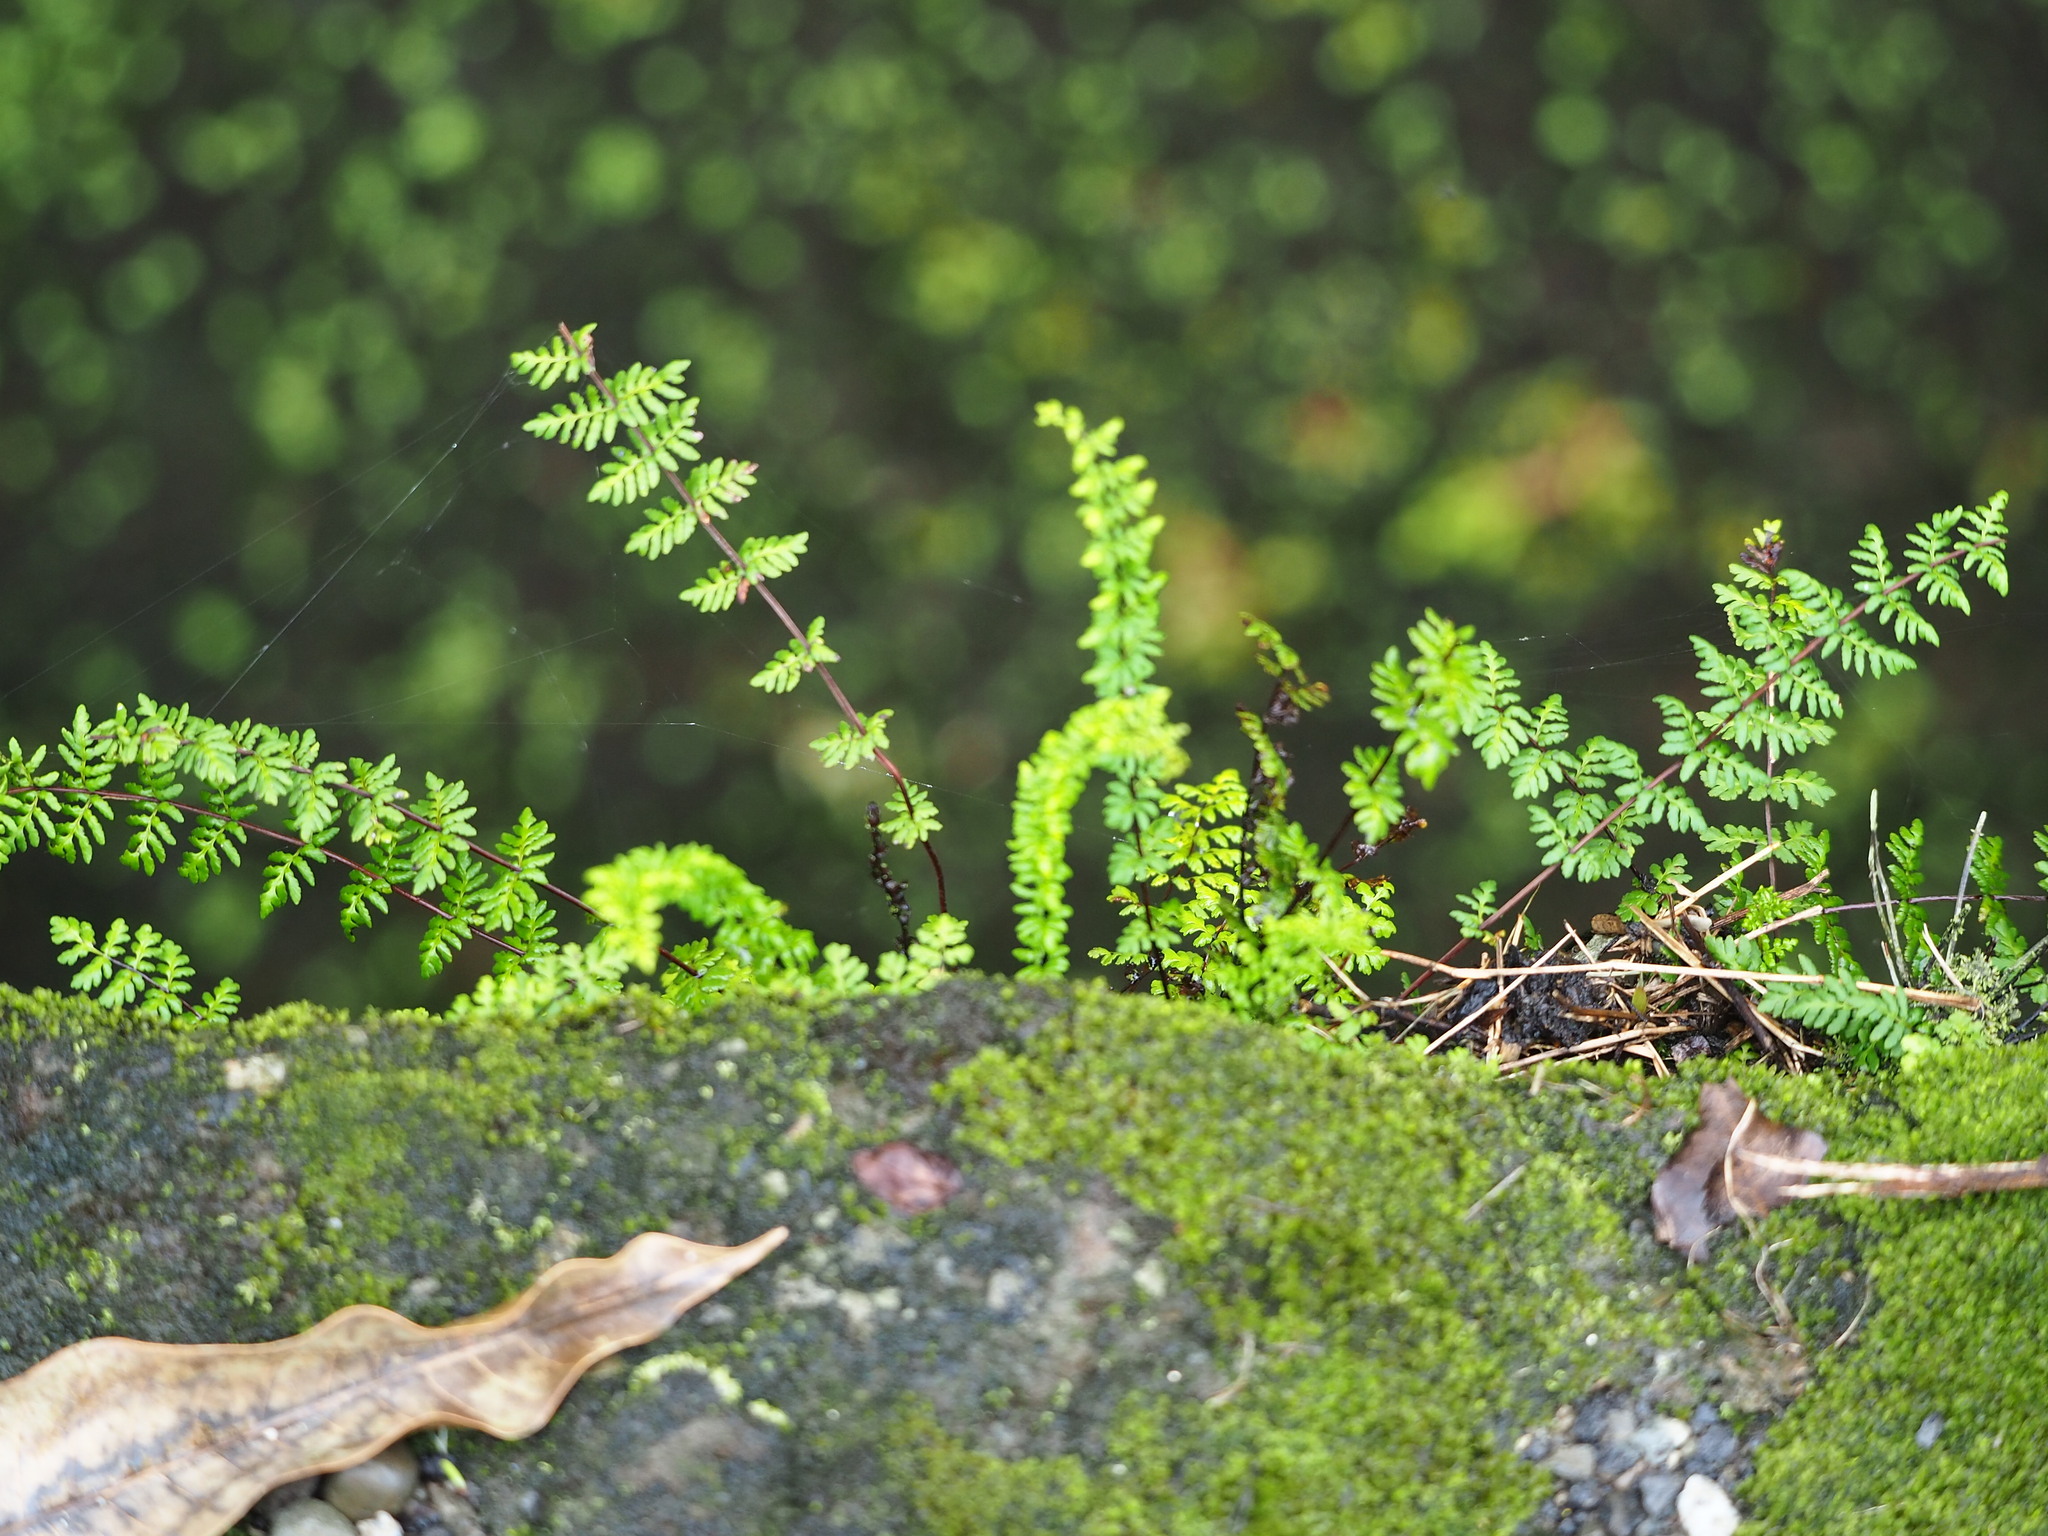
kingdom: Plantae
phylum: Tracheophyta
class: Polypodiopsida
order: Polypodiales
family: Pteridaceae
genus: Oeosporangium
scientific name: Oeosporangium chusanum
